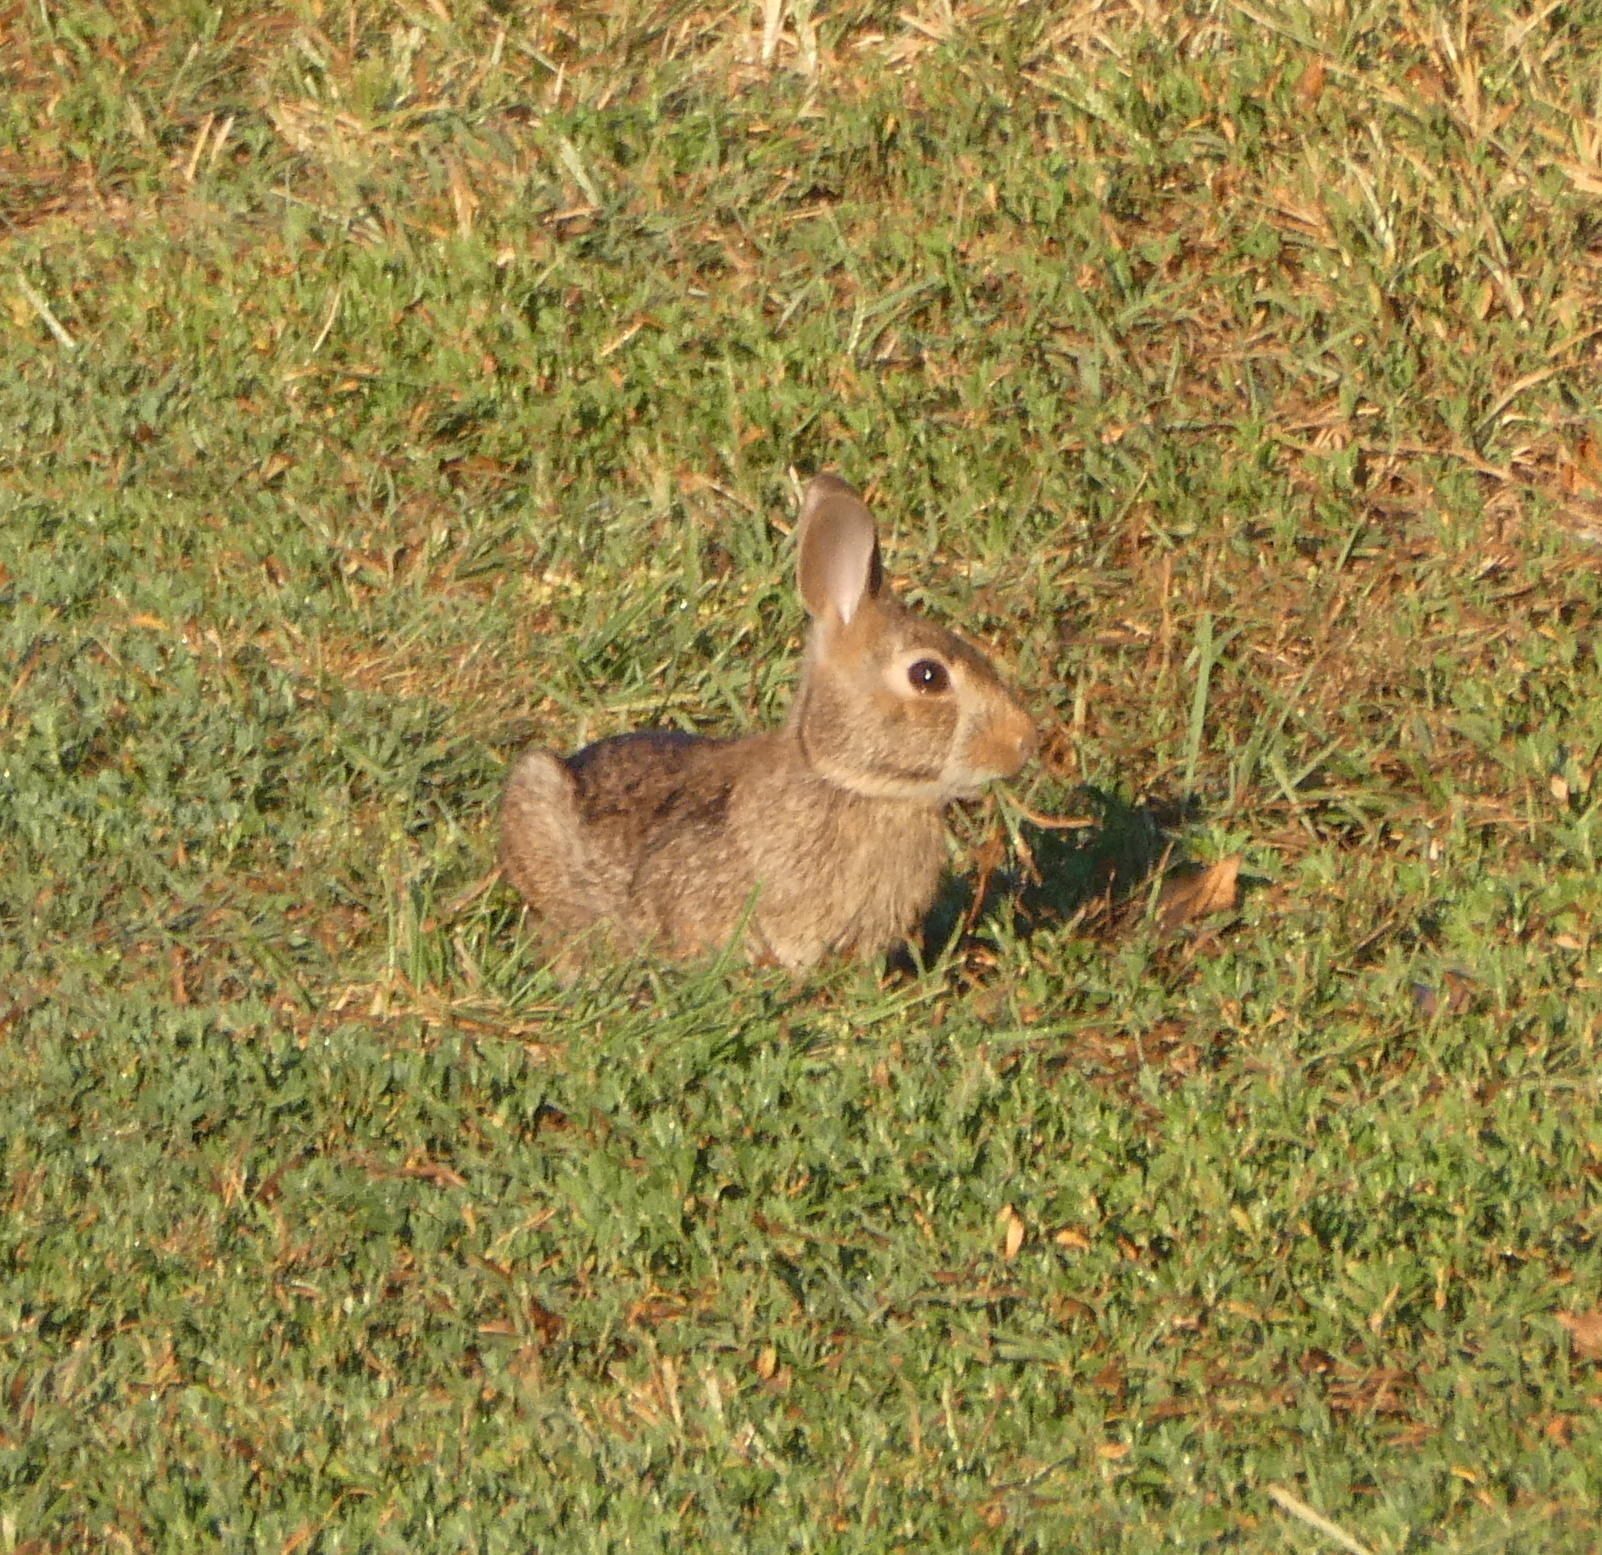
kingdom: Animalia
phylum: Chordata
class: Mammalia
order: Lagomorpha
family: Leporidae
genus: Sylvilagus
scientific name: Sylvilagus floridanus
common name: Eastern cottontail
